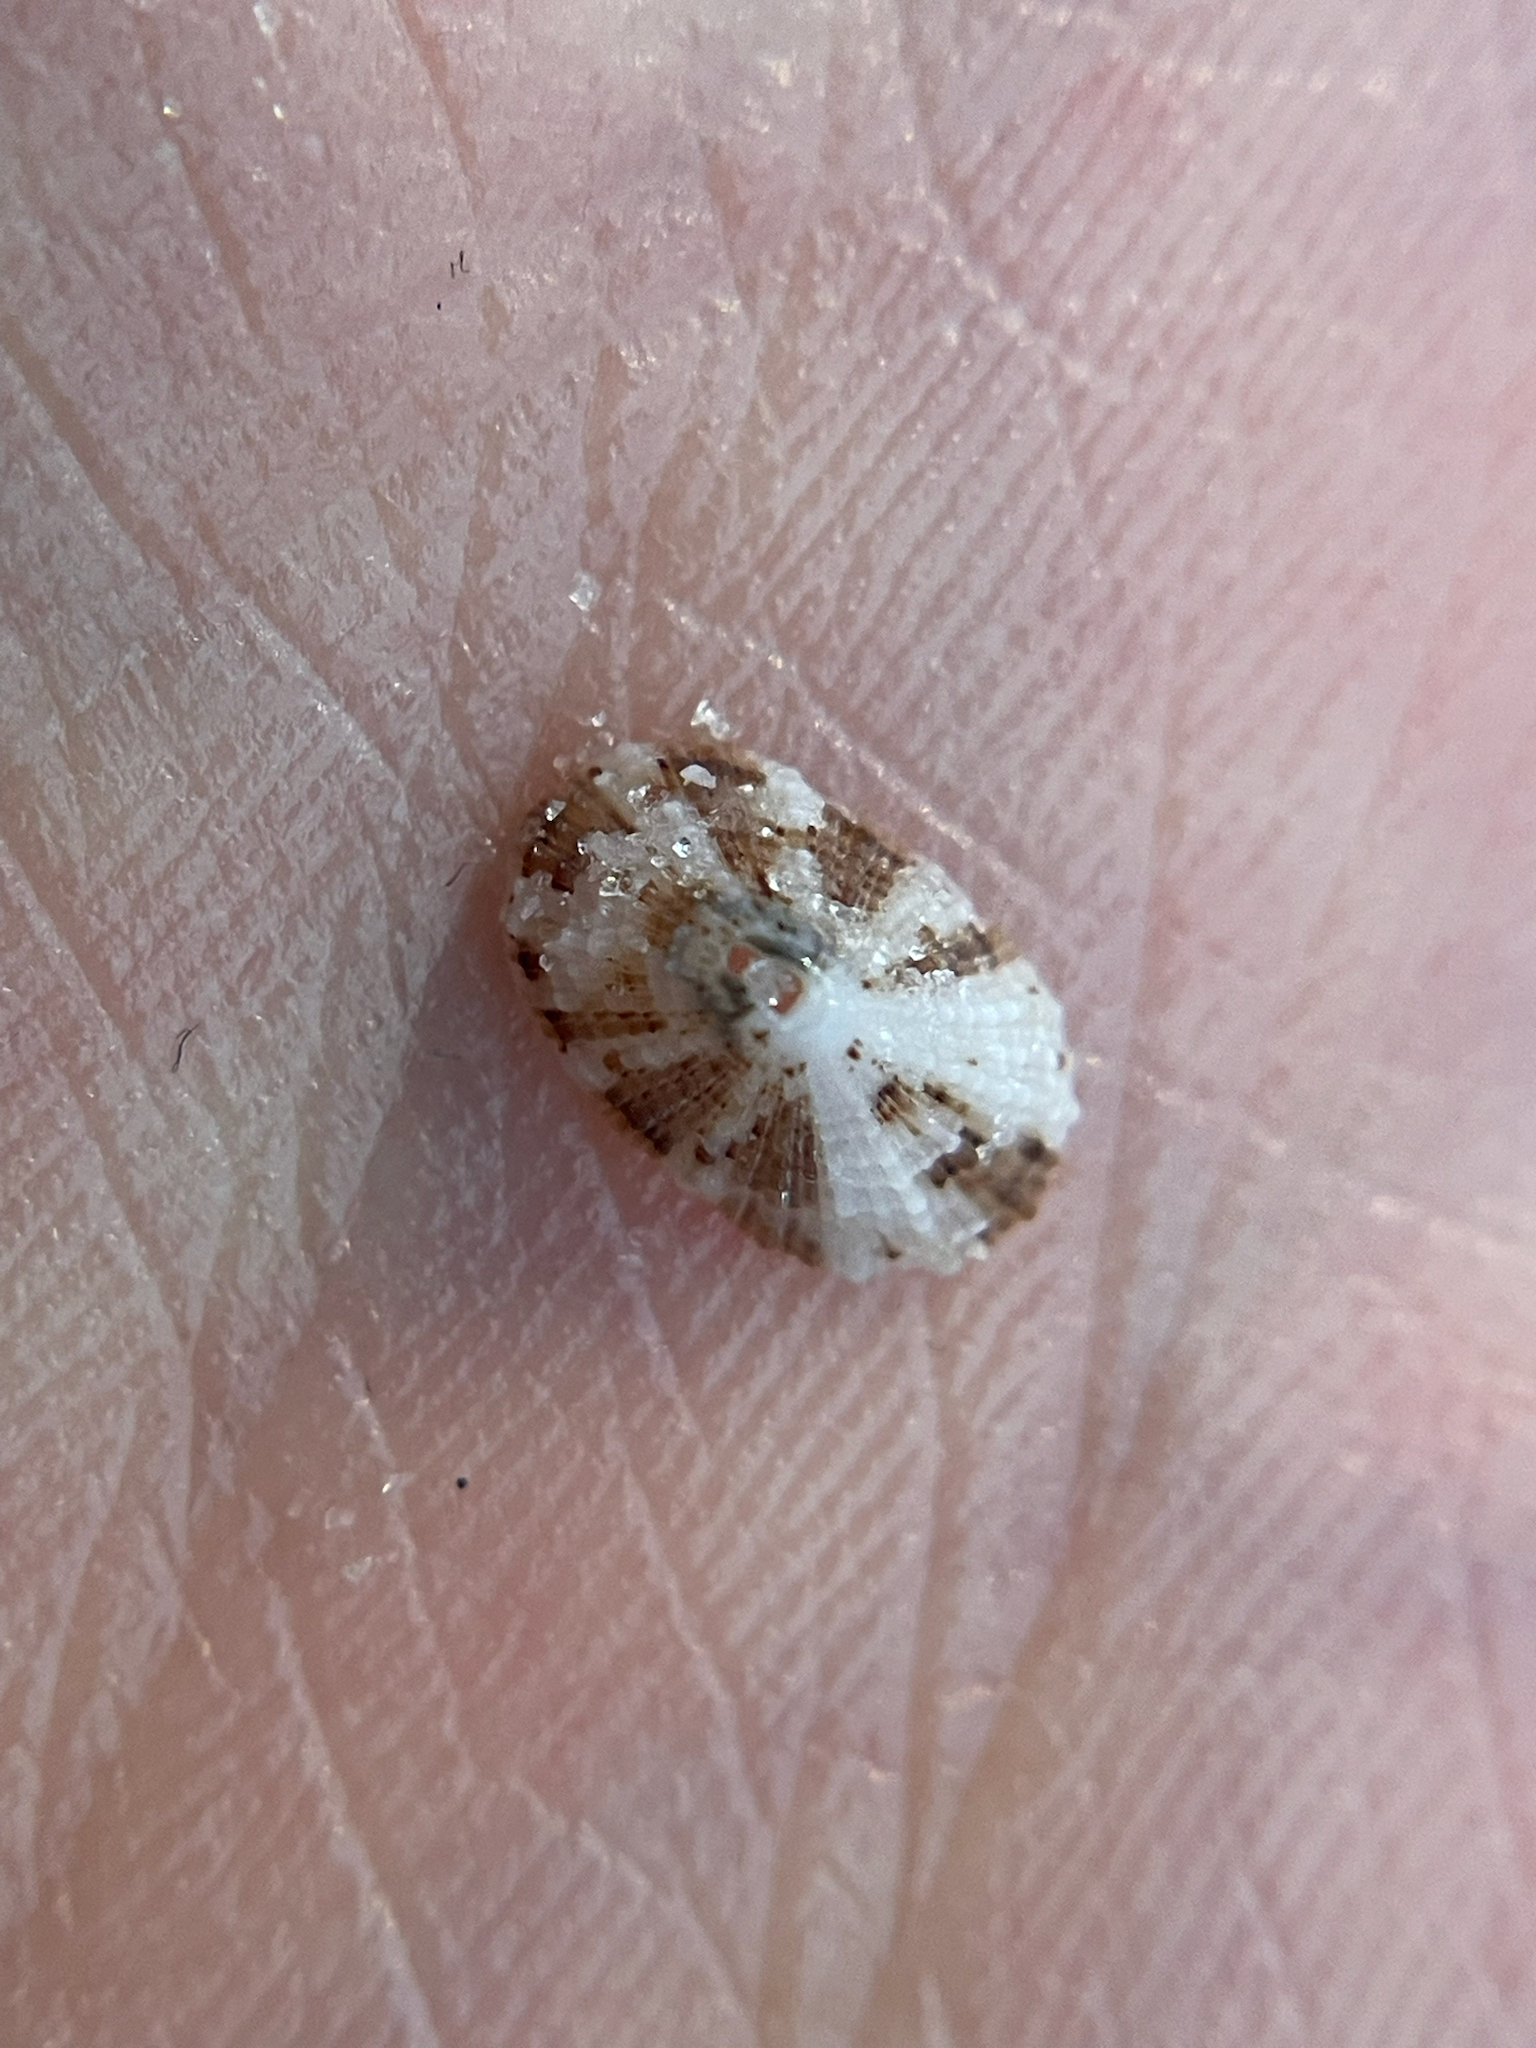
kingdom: Animalia
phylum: Mollusca
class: Gastropoda
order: Lepetellida
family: Fissurellidae
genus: Diodora
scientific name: Diodora cayenensis
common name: Cayenne keyhole limpet
